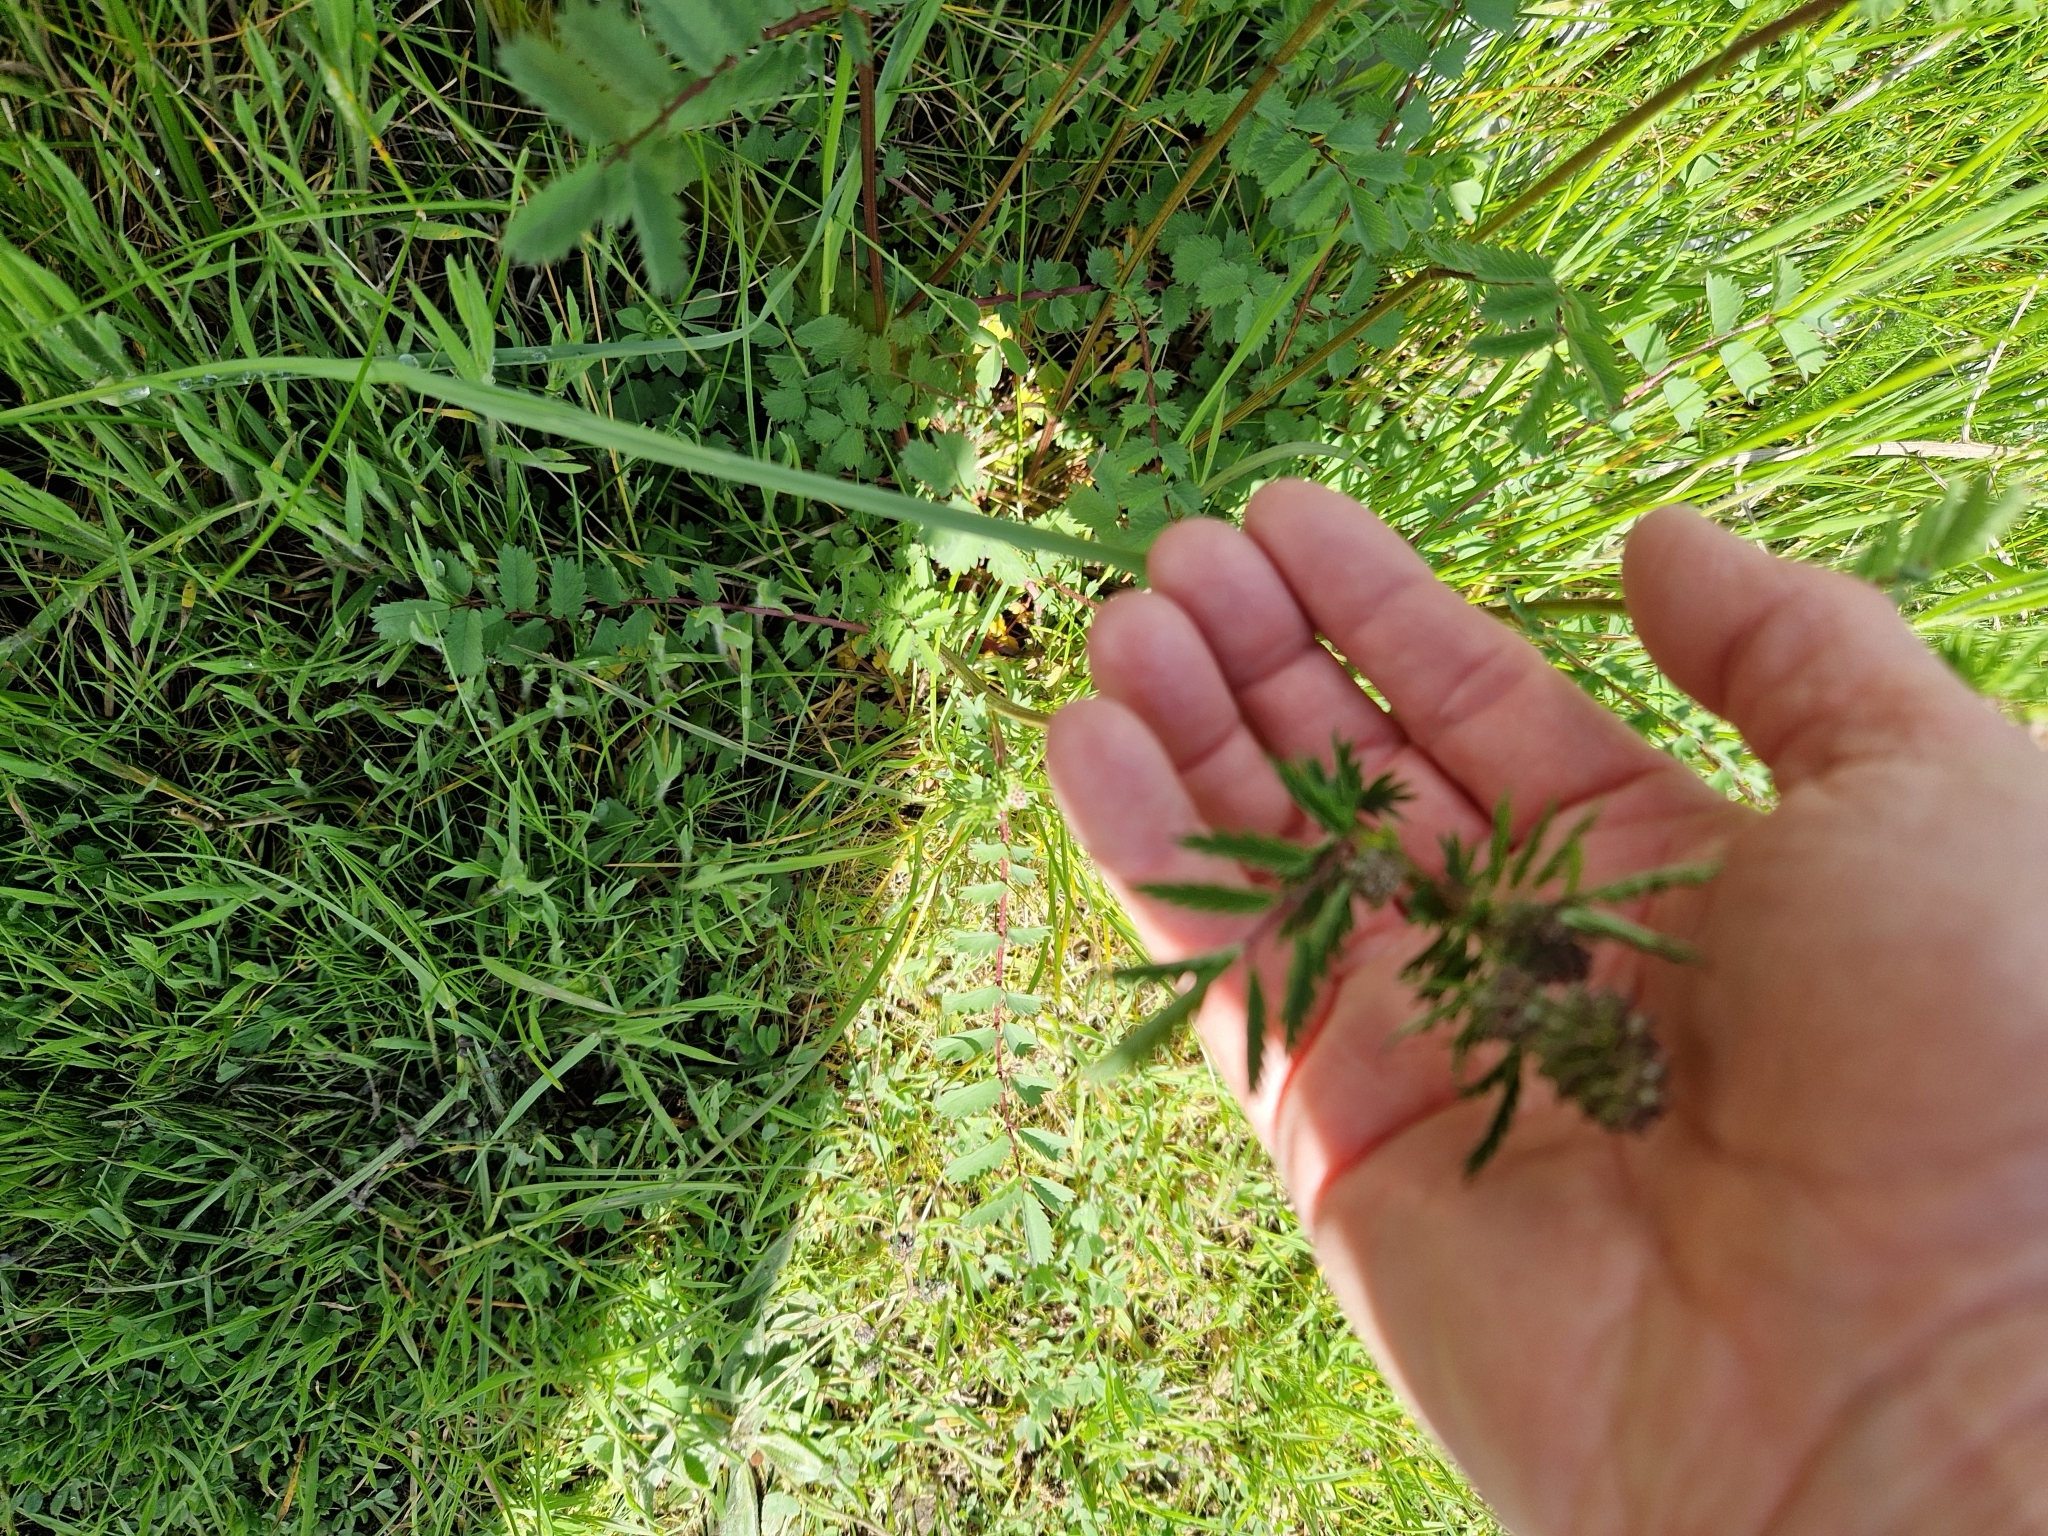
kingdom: Plantae
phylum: Tracheophyta
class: Magnoliopsida
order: Rosales
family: Rosaceae
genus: Poterium
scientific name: Poterium sanguisorba
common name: Salad burnet
